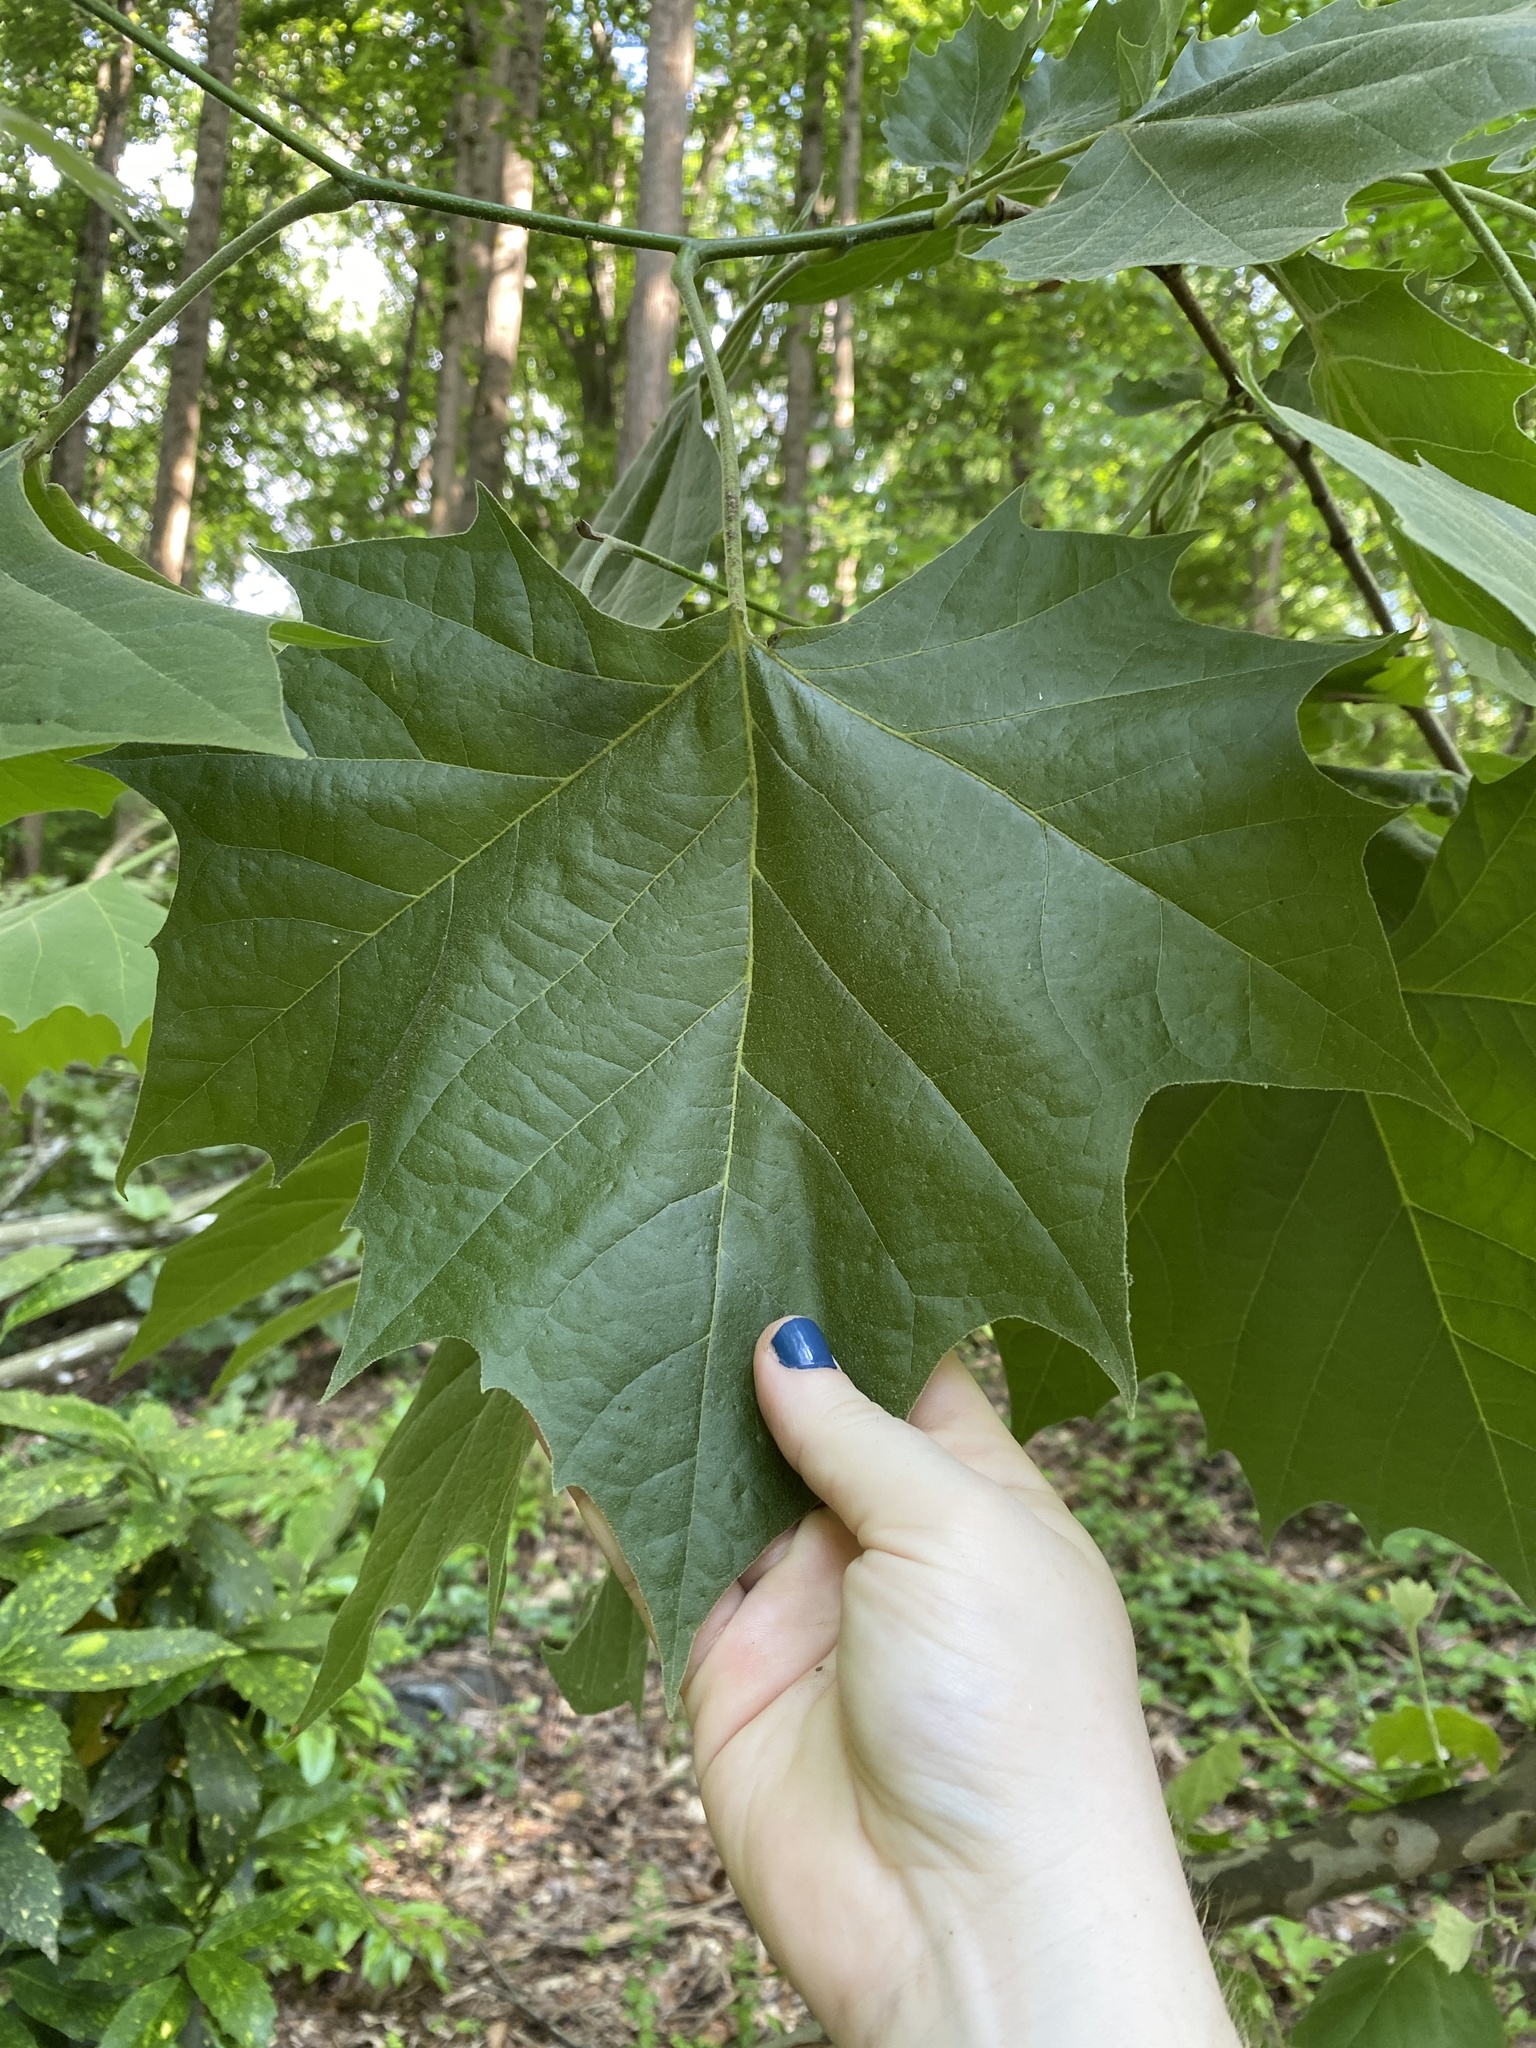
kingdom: Plantae
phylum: Tracheophyta
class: Magnoliopsida
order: Proteales
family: Platanaceae
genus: Platanus
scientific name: Platanus occidentalis
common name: American sycamore
